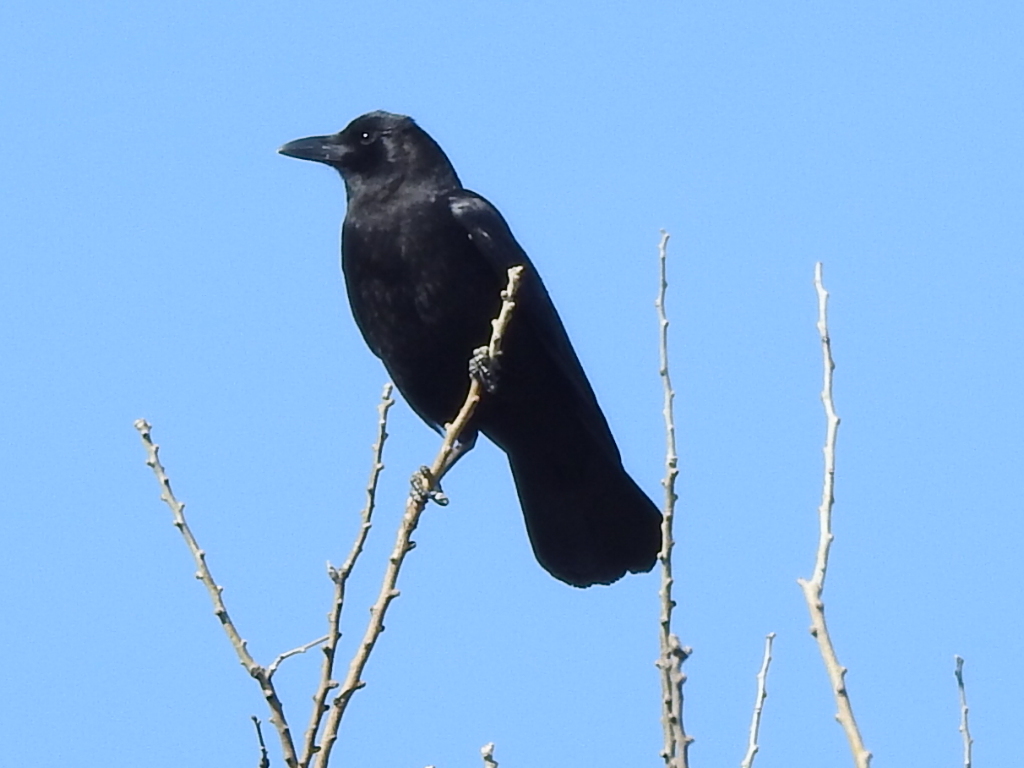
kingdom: Animalia
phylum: Chordata
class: Aves
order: Passeriformes
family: Corvidae
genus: Corvus
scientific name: Corvus brachyrhynchos
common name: American crow
